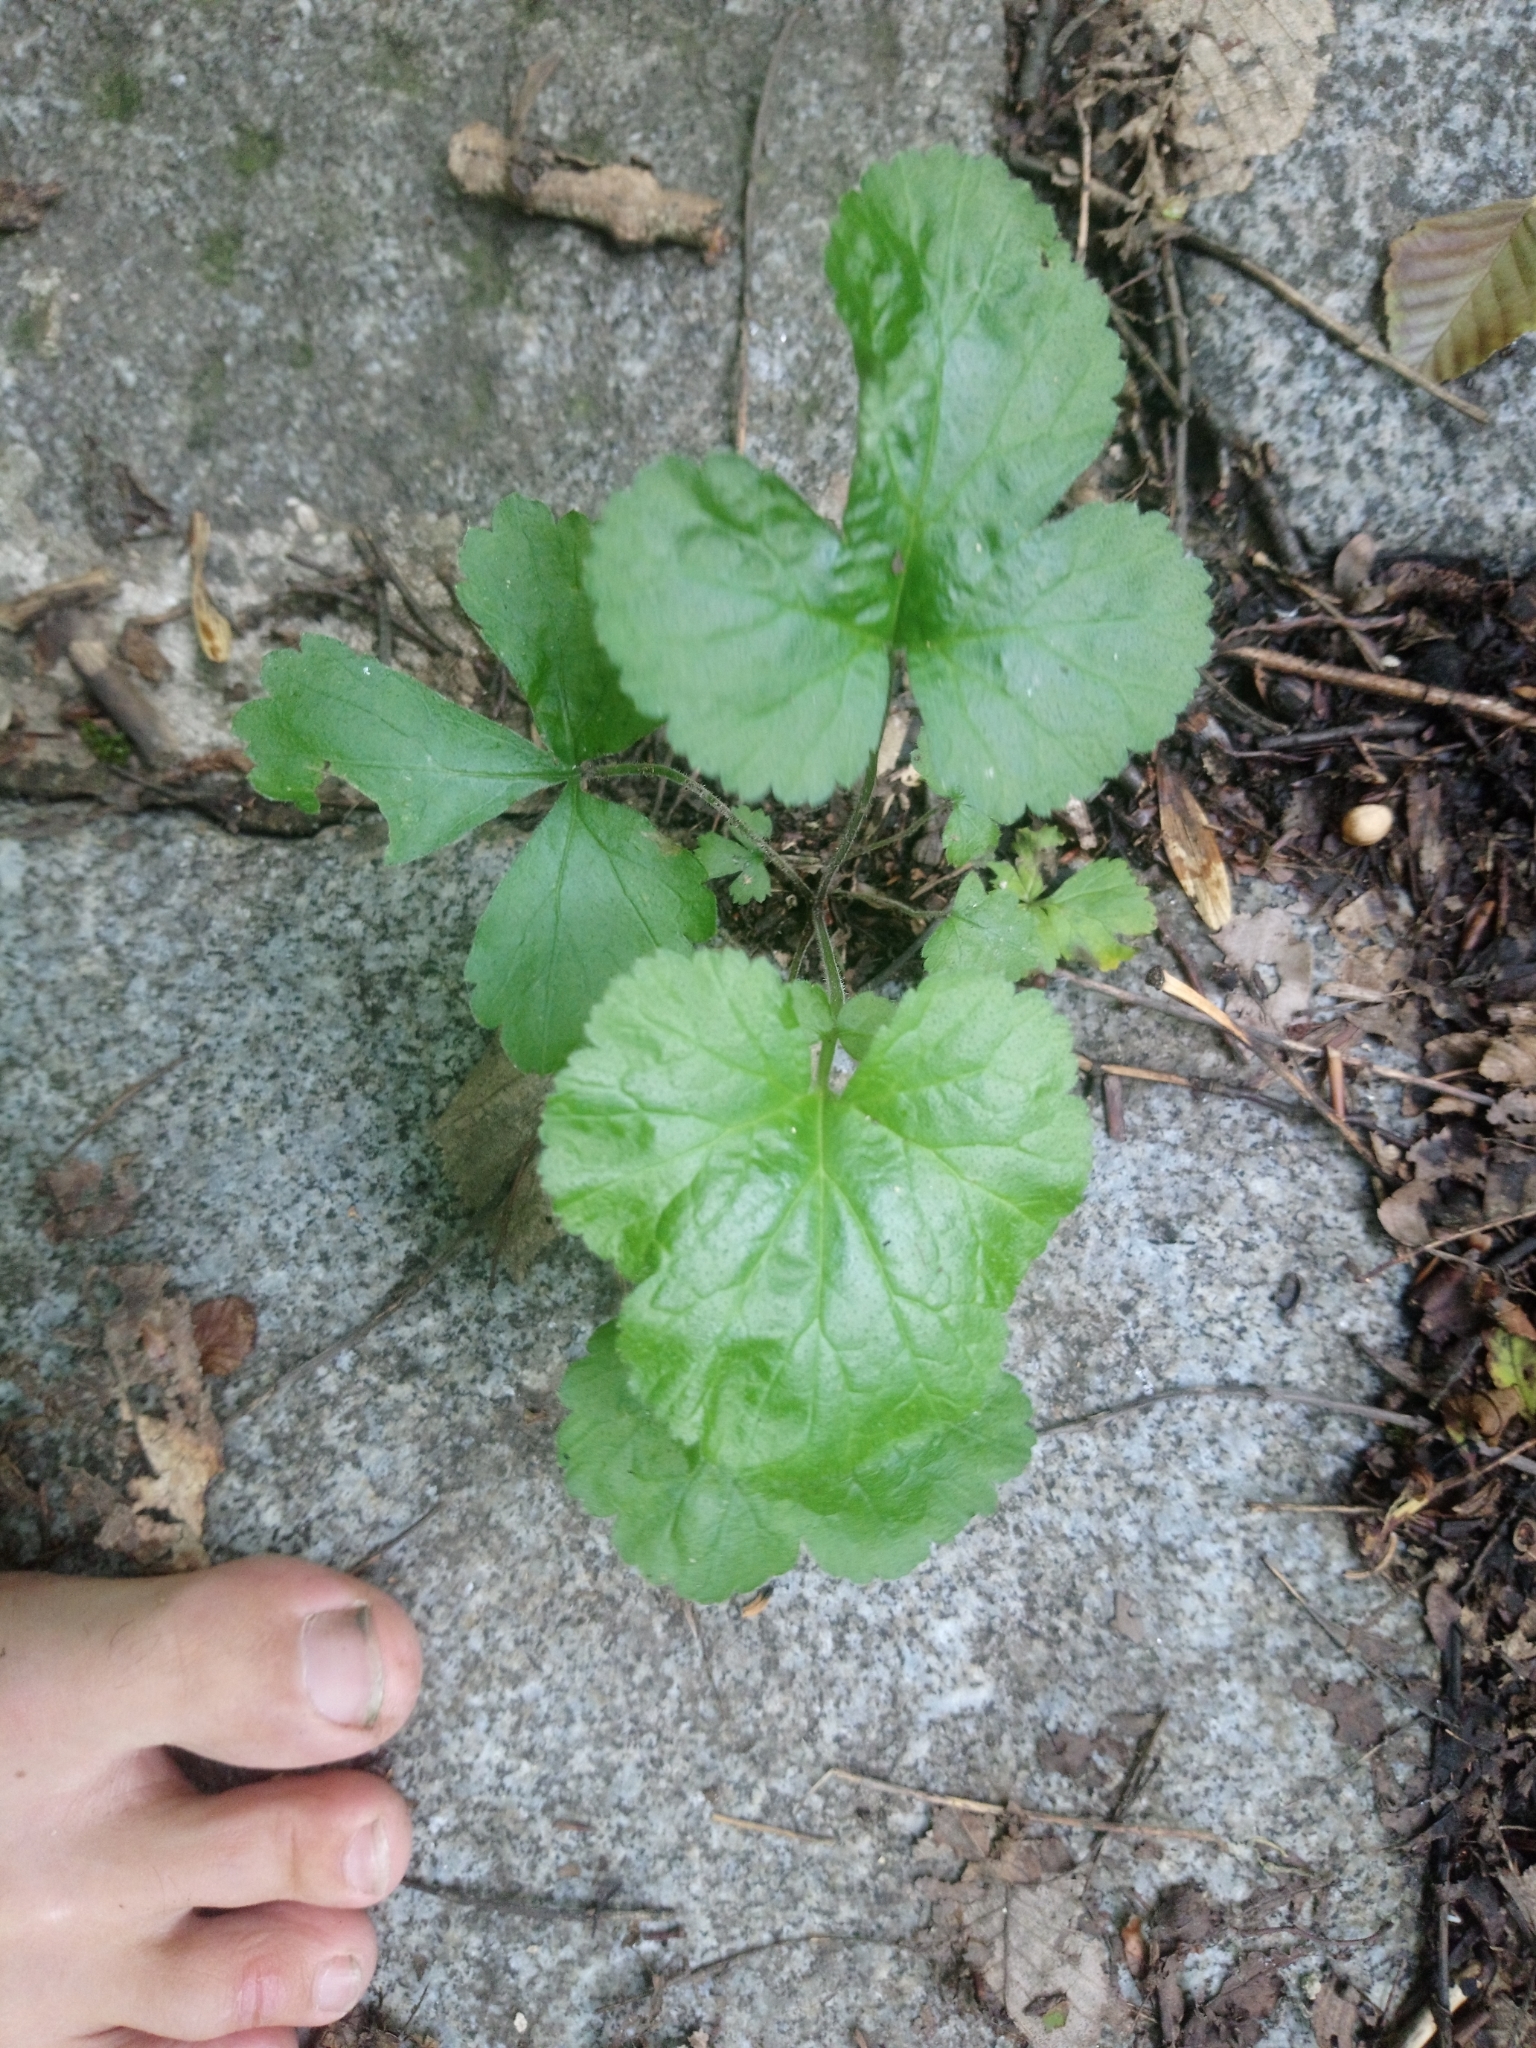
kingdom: Plantae
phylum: Tracheophyta
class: Magnoliopsida
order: Rosales
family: Rosaceae
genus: Geum
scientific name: Geum urbanum
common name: Wood avens
